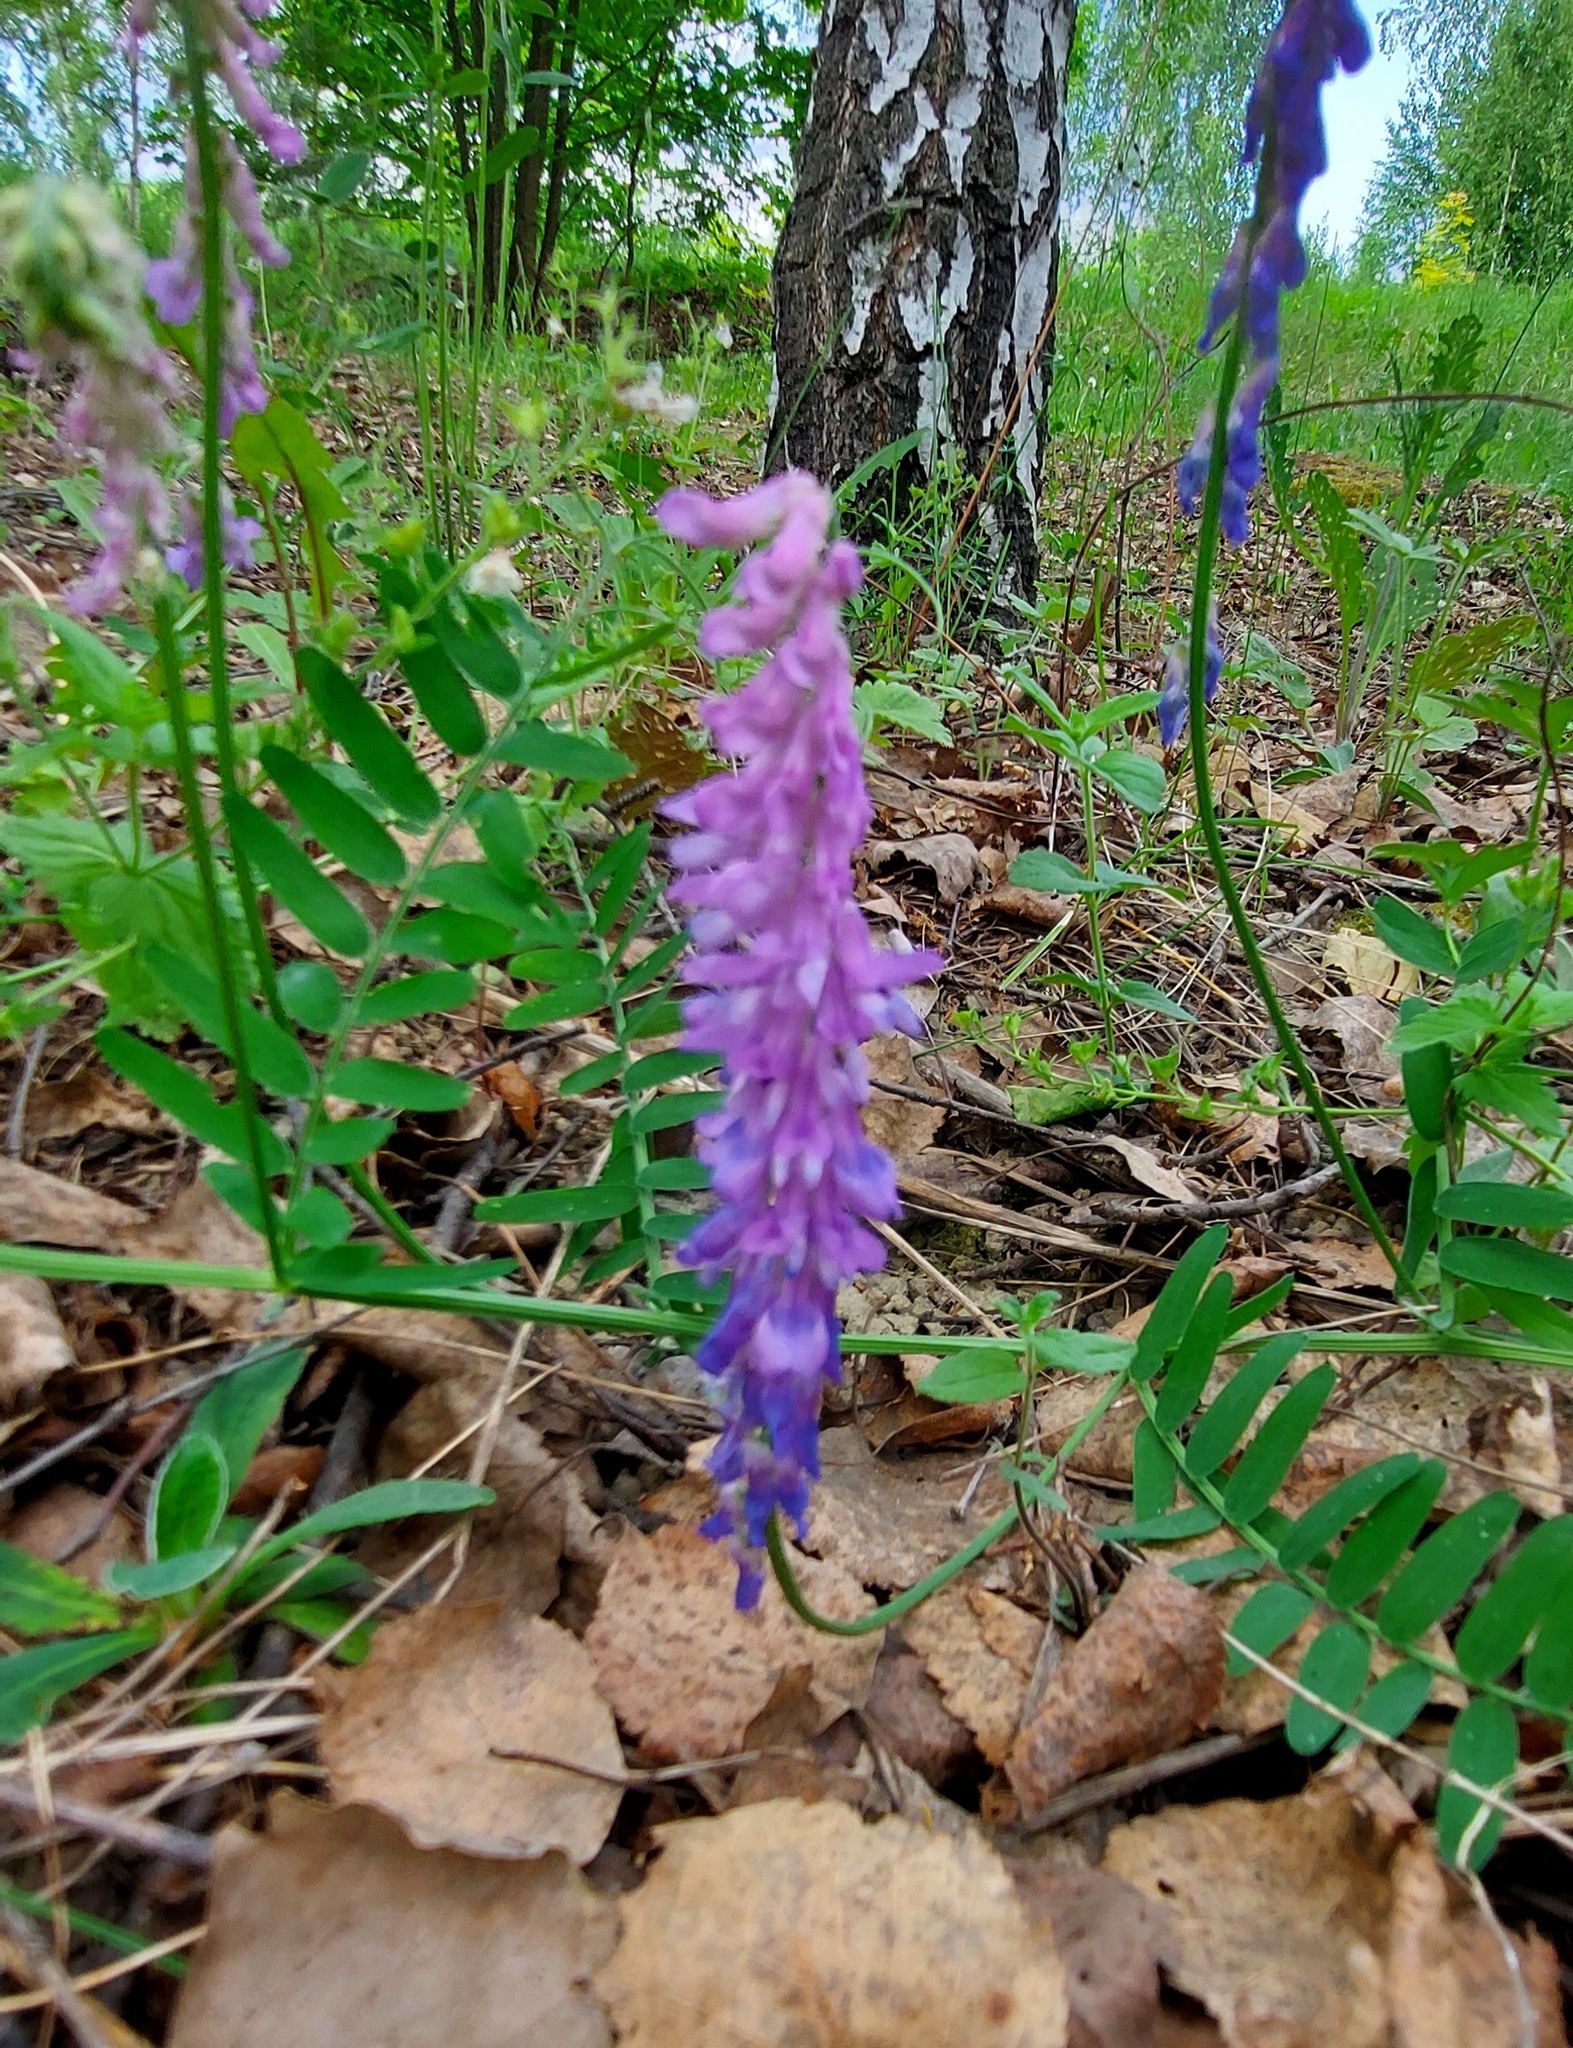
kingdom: Plantae
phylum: Tracheophyta
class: Magnoliopsida
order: Fabales
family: Fabaceae
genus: Vicia
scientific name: Vicia cracca
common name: Bird vetch
